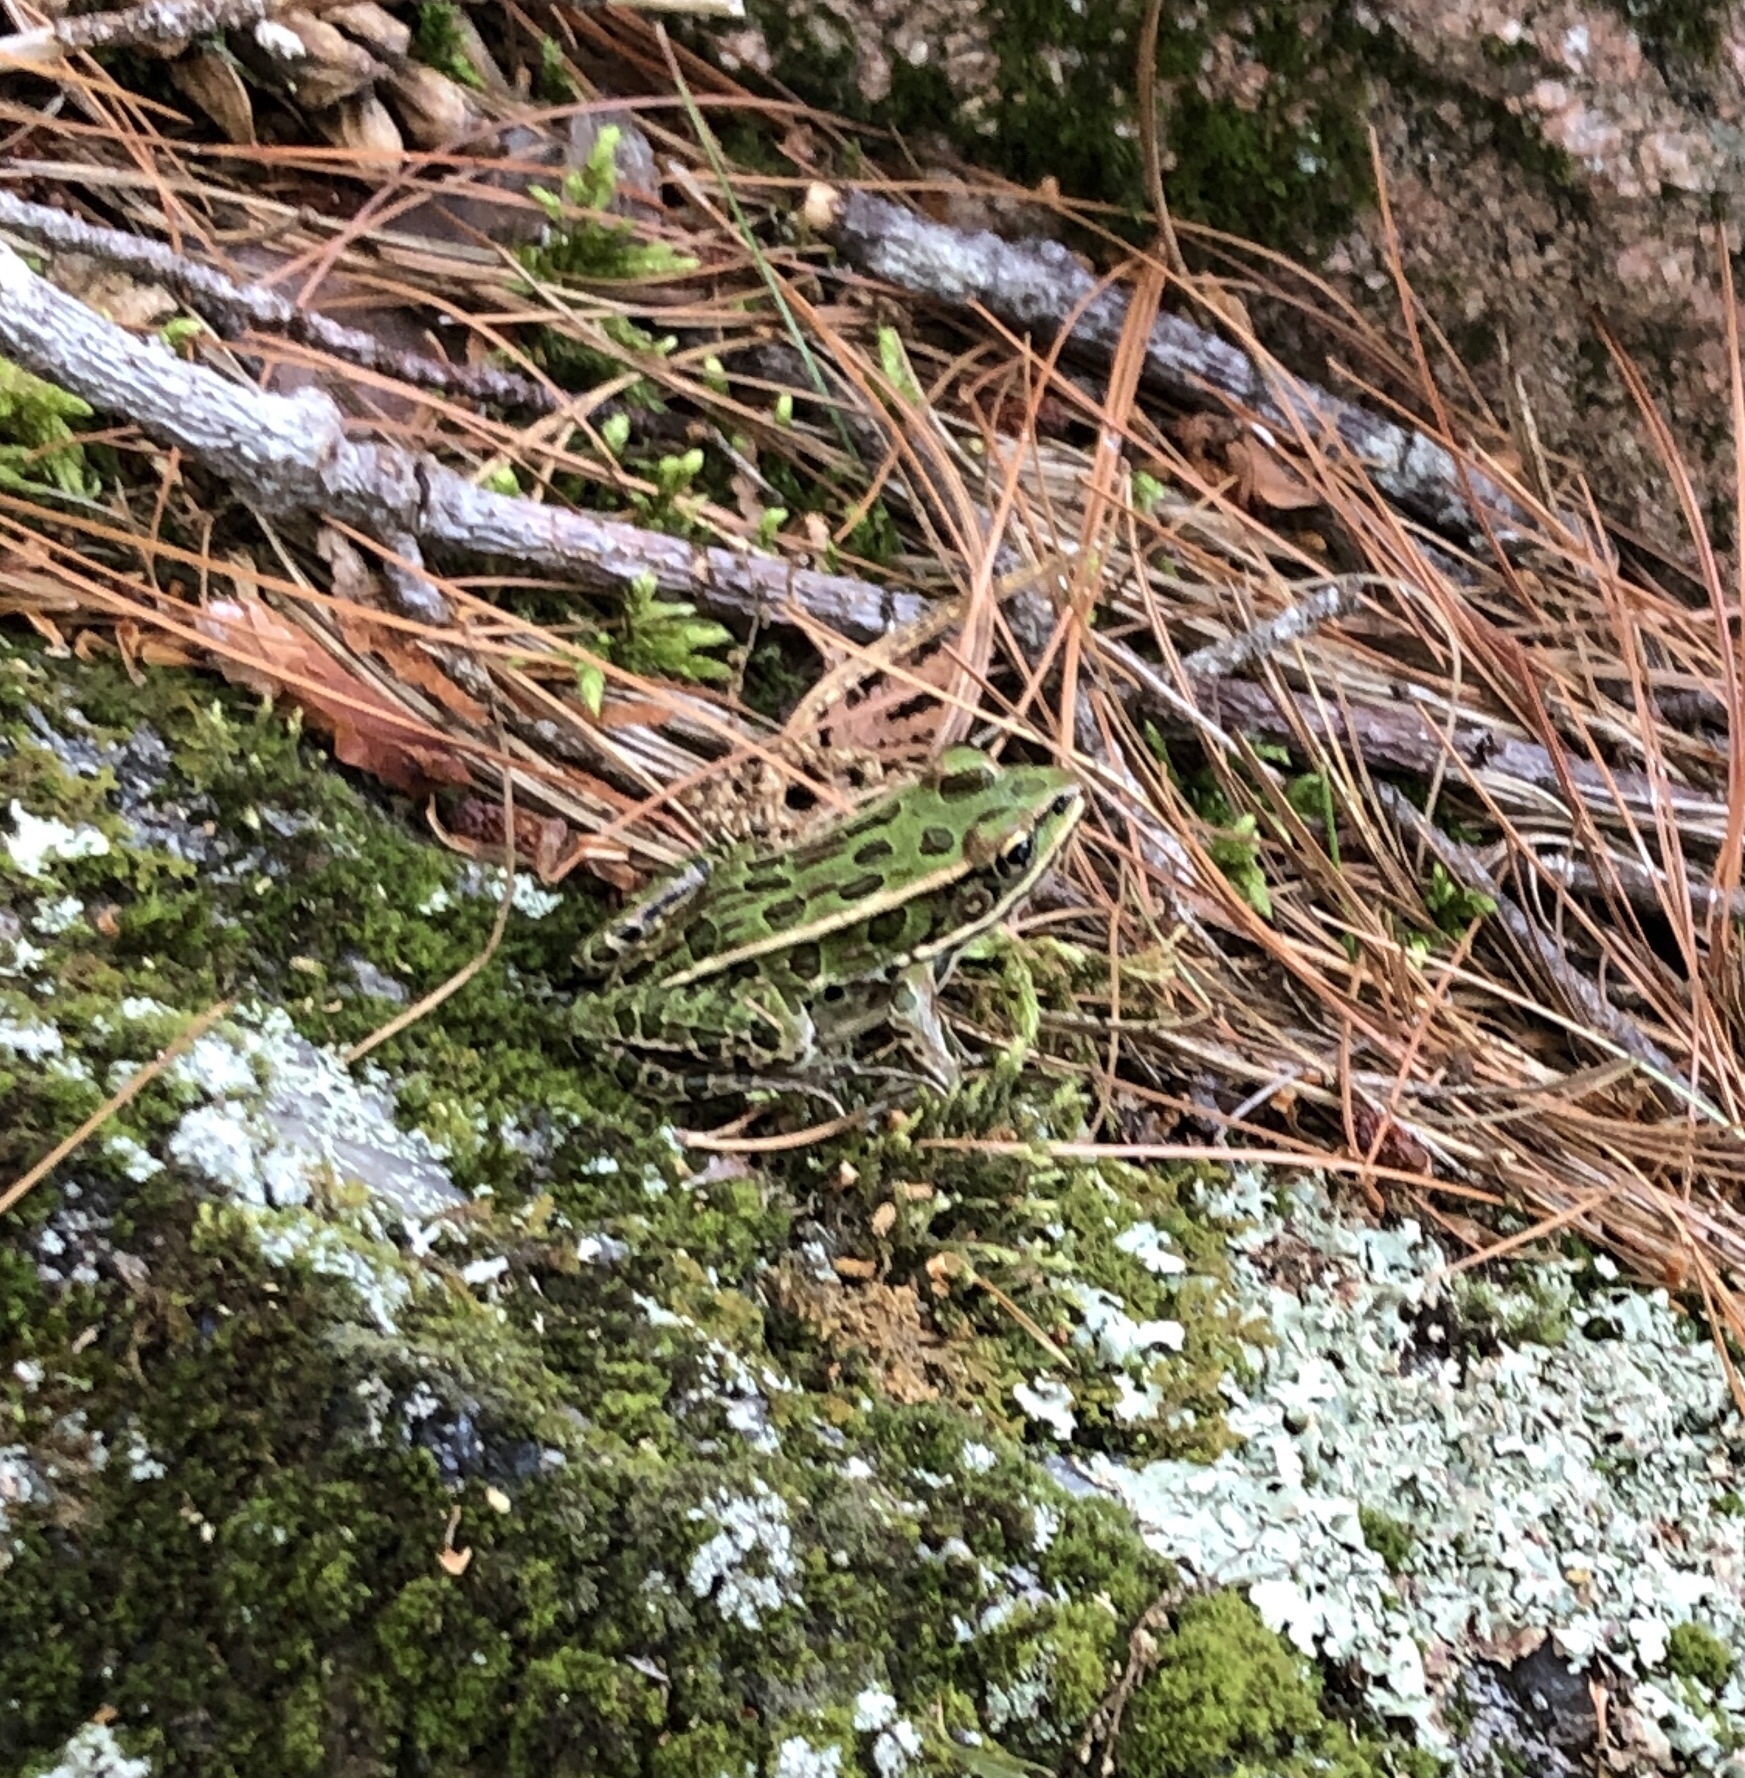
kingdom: Animalia
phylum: Chordata
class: Amphibia
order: Anura
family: Ranidae
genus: Lithobates
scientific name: Lithobates pipiens
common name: Northern leopard frog
